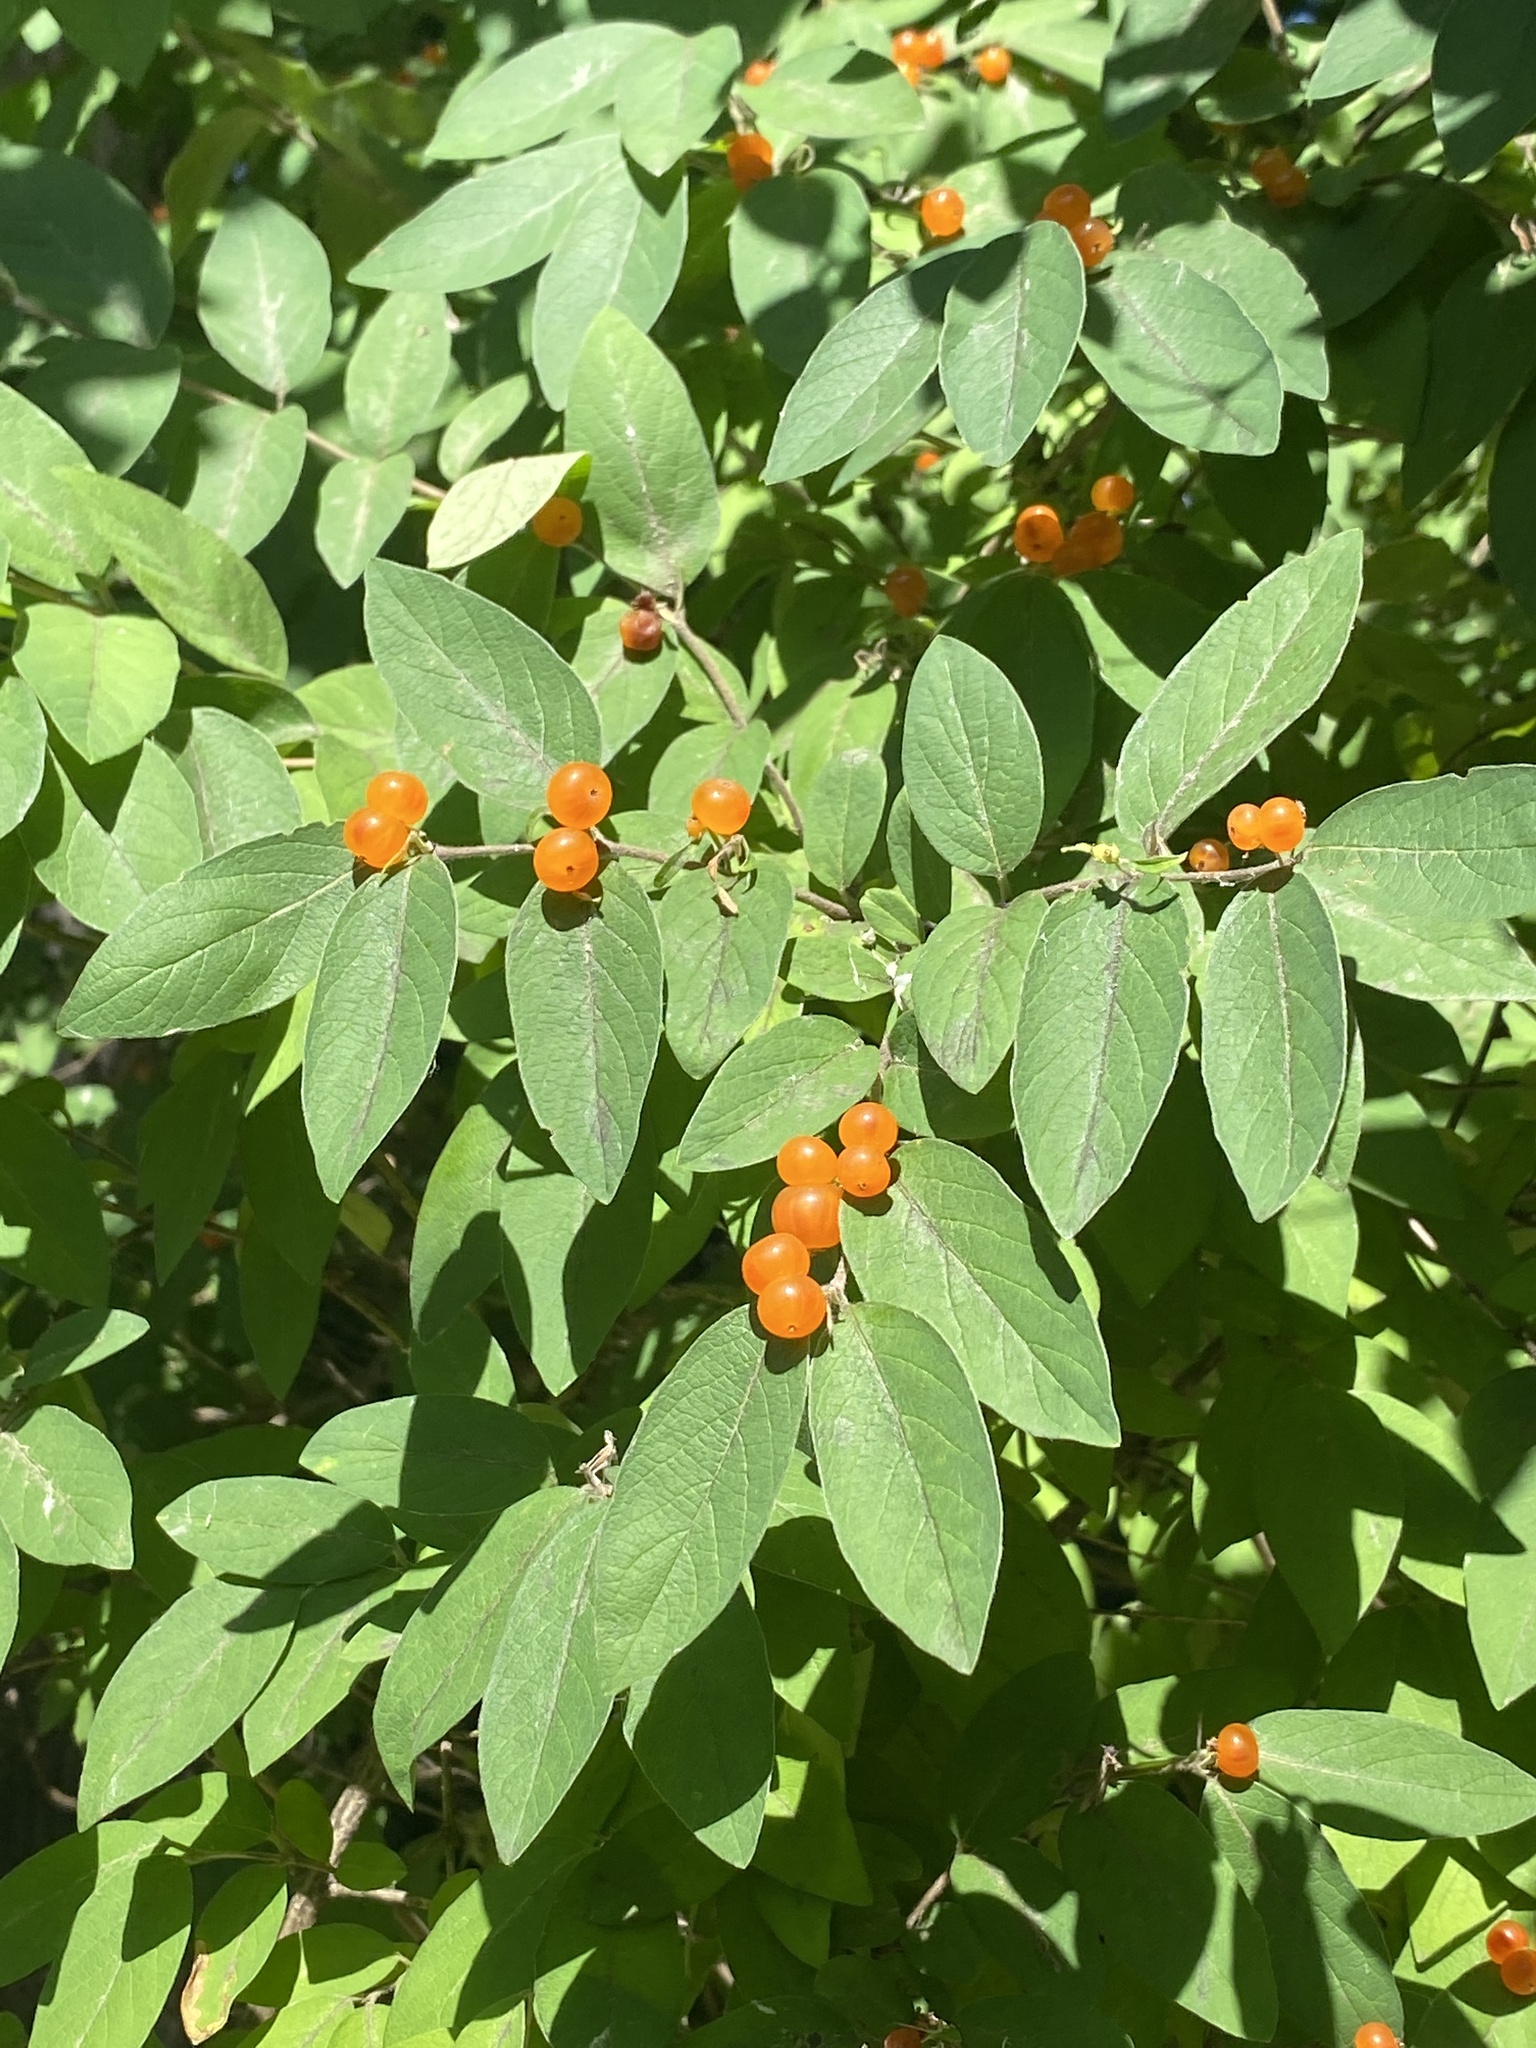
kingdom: Plantae
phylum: Tracheophyta
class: Magnoliopsida
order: Dipsacales
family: Caprifoliaceae
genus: Lonicera
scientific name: Lonicera
